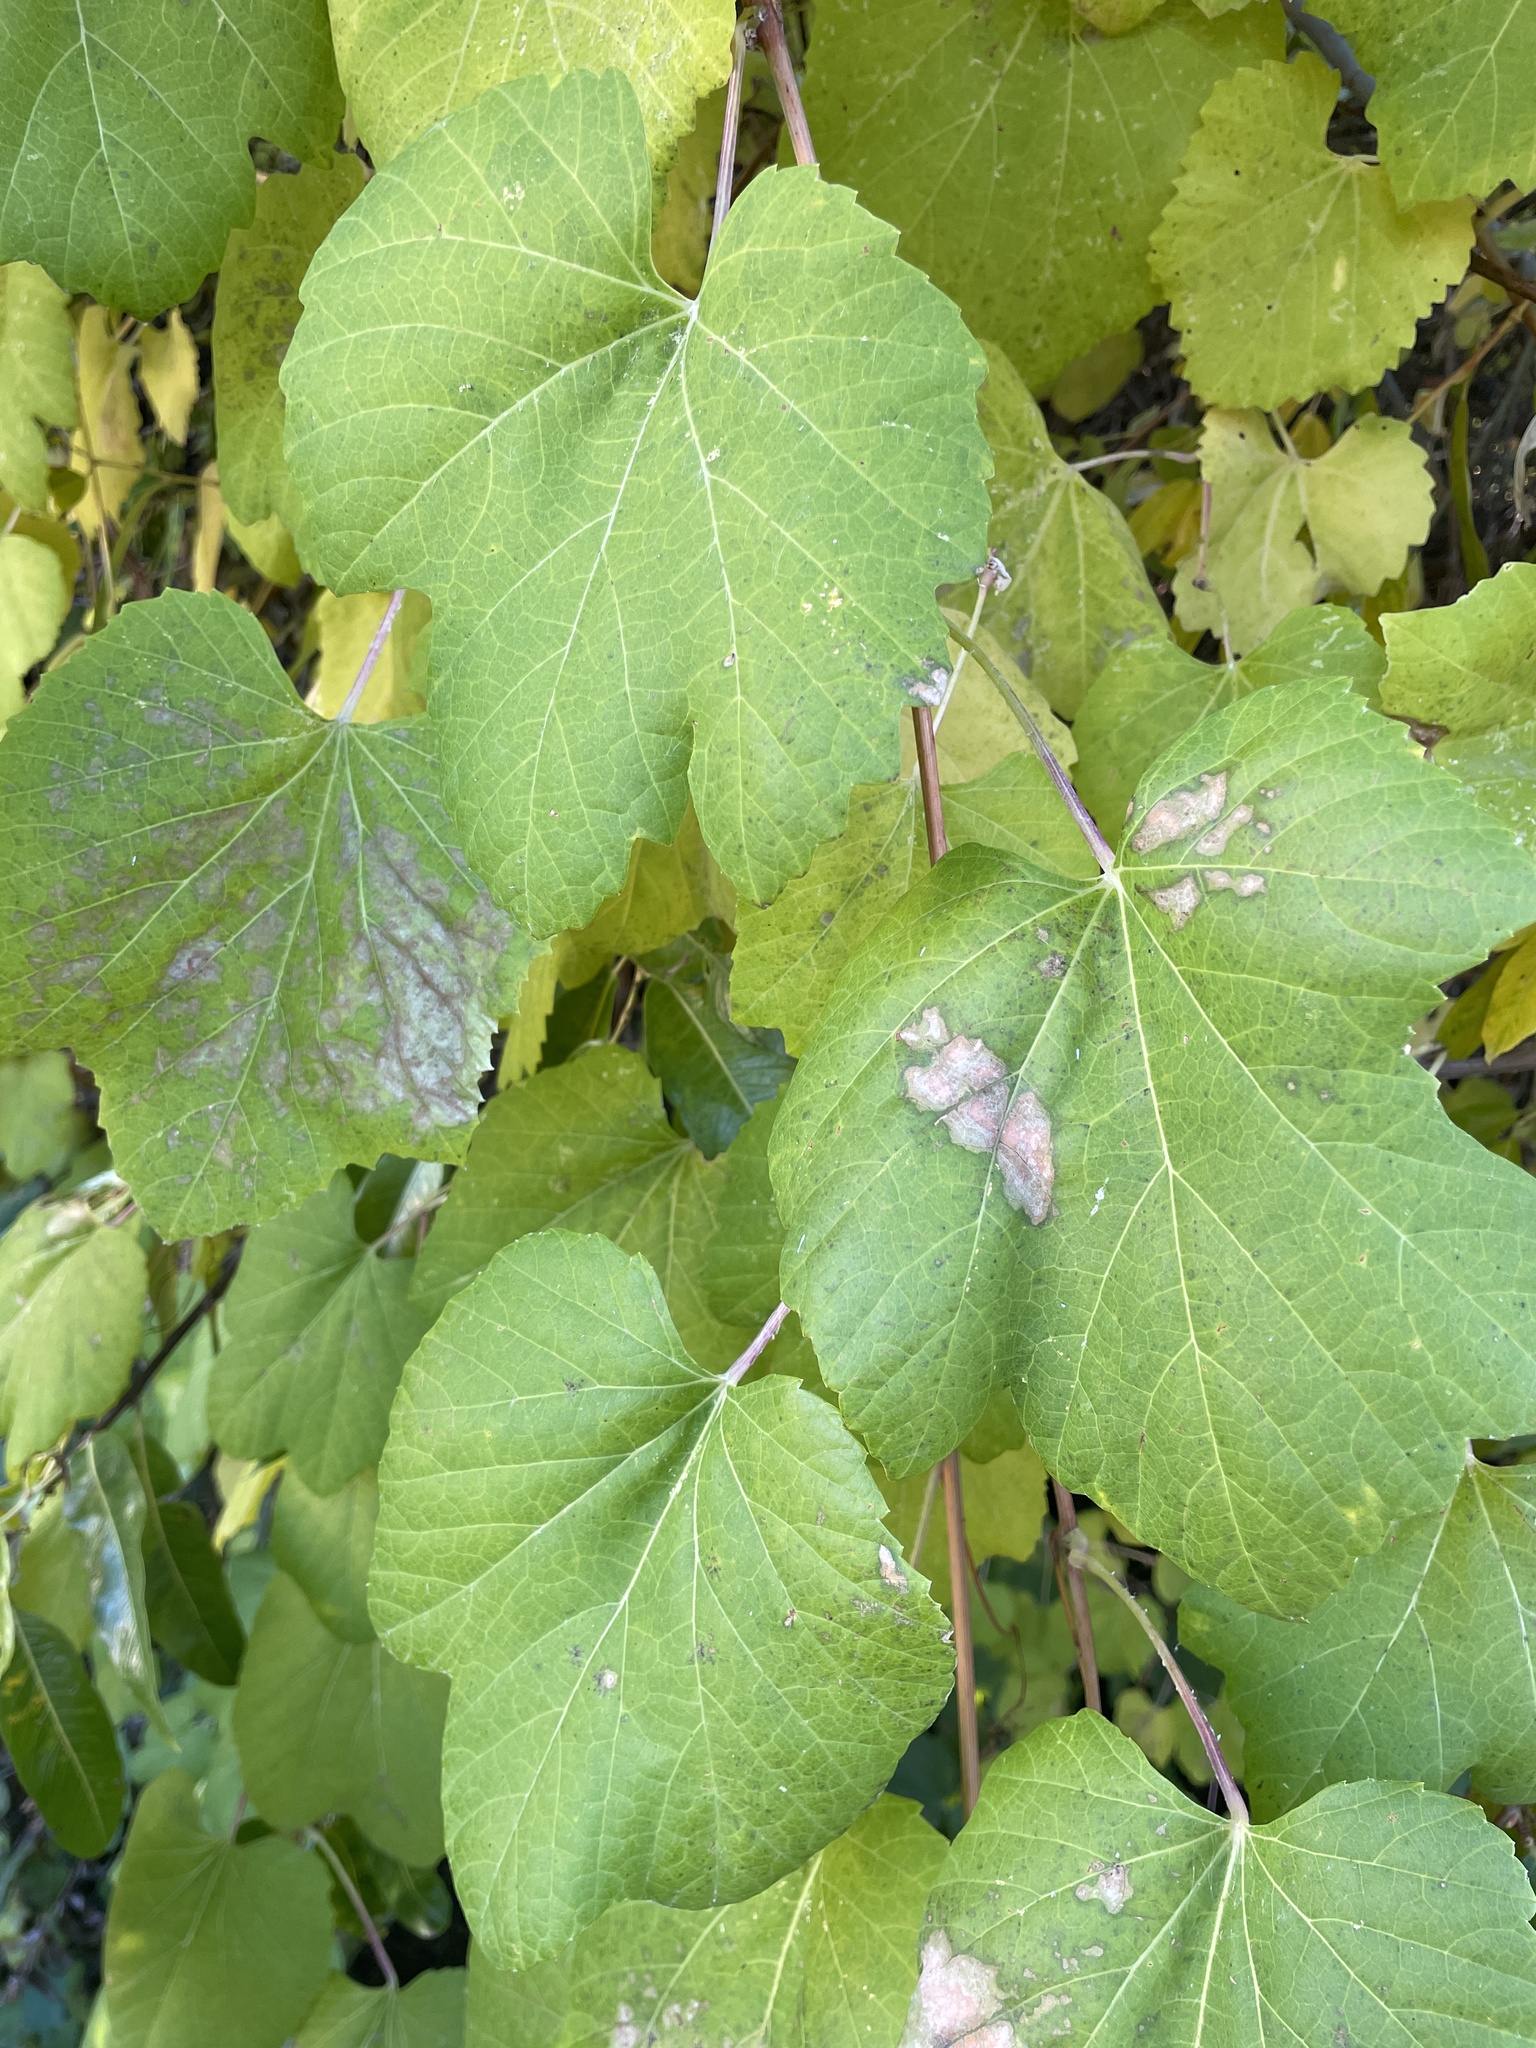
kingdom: Plantae
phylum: Tracheophyta
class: Magnoliopsida
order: Vitales
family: Vitaceae
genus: Vitis
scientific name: Vitis girdiana
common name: Desert wild grape
